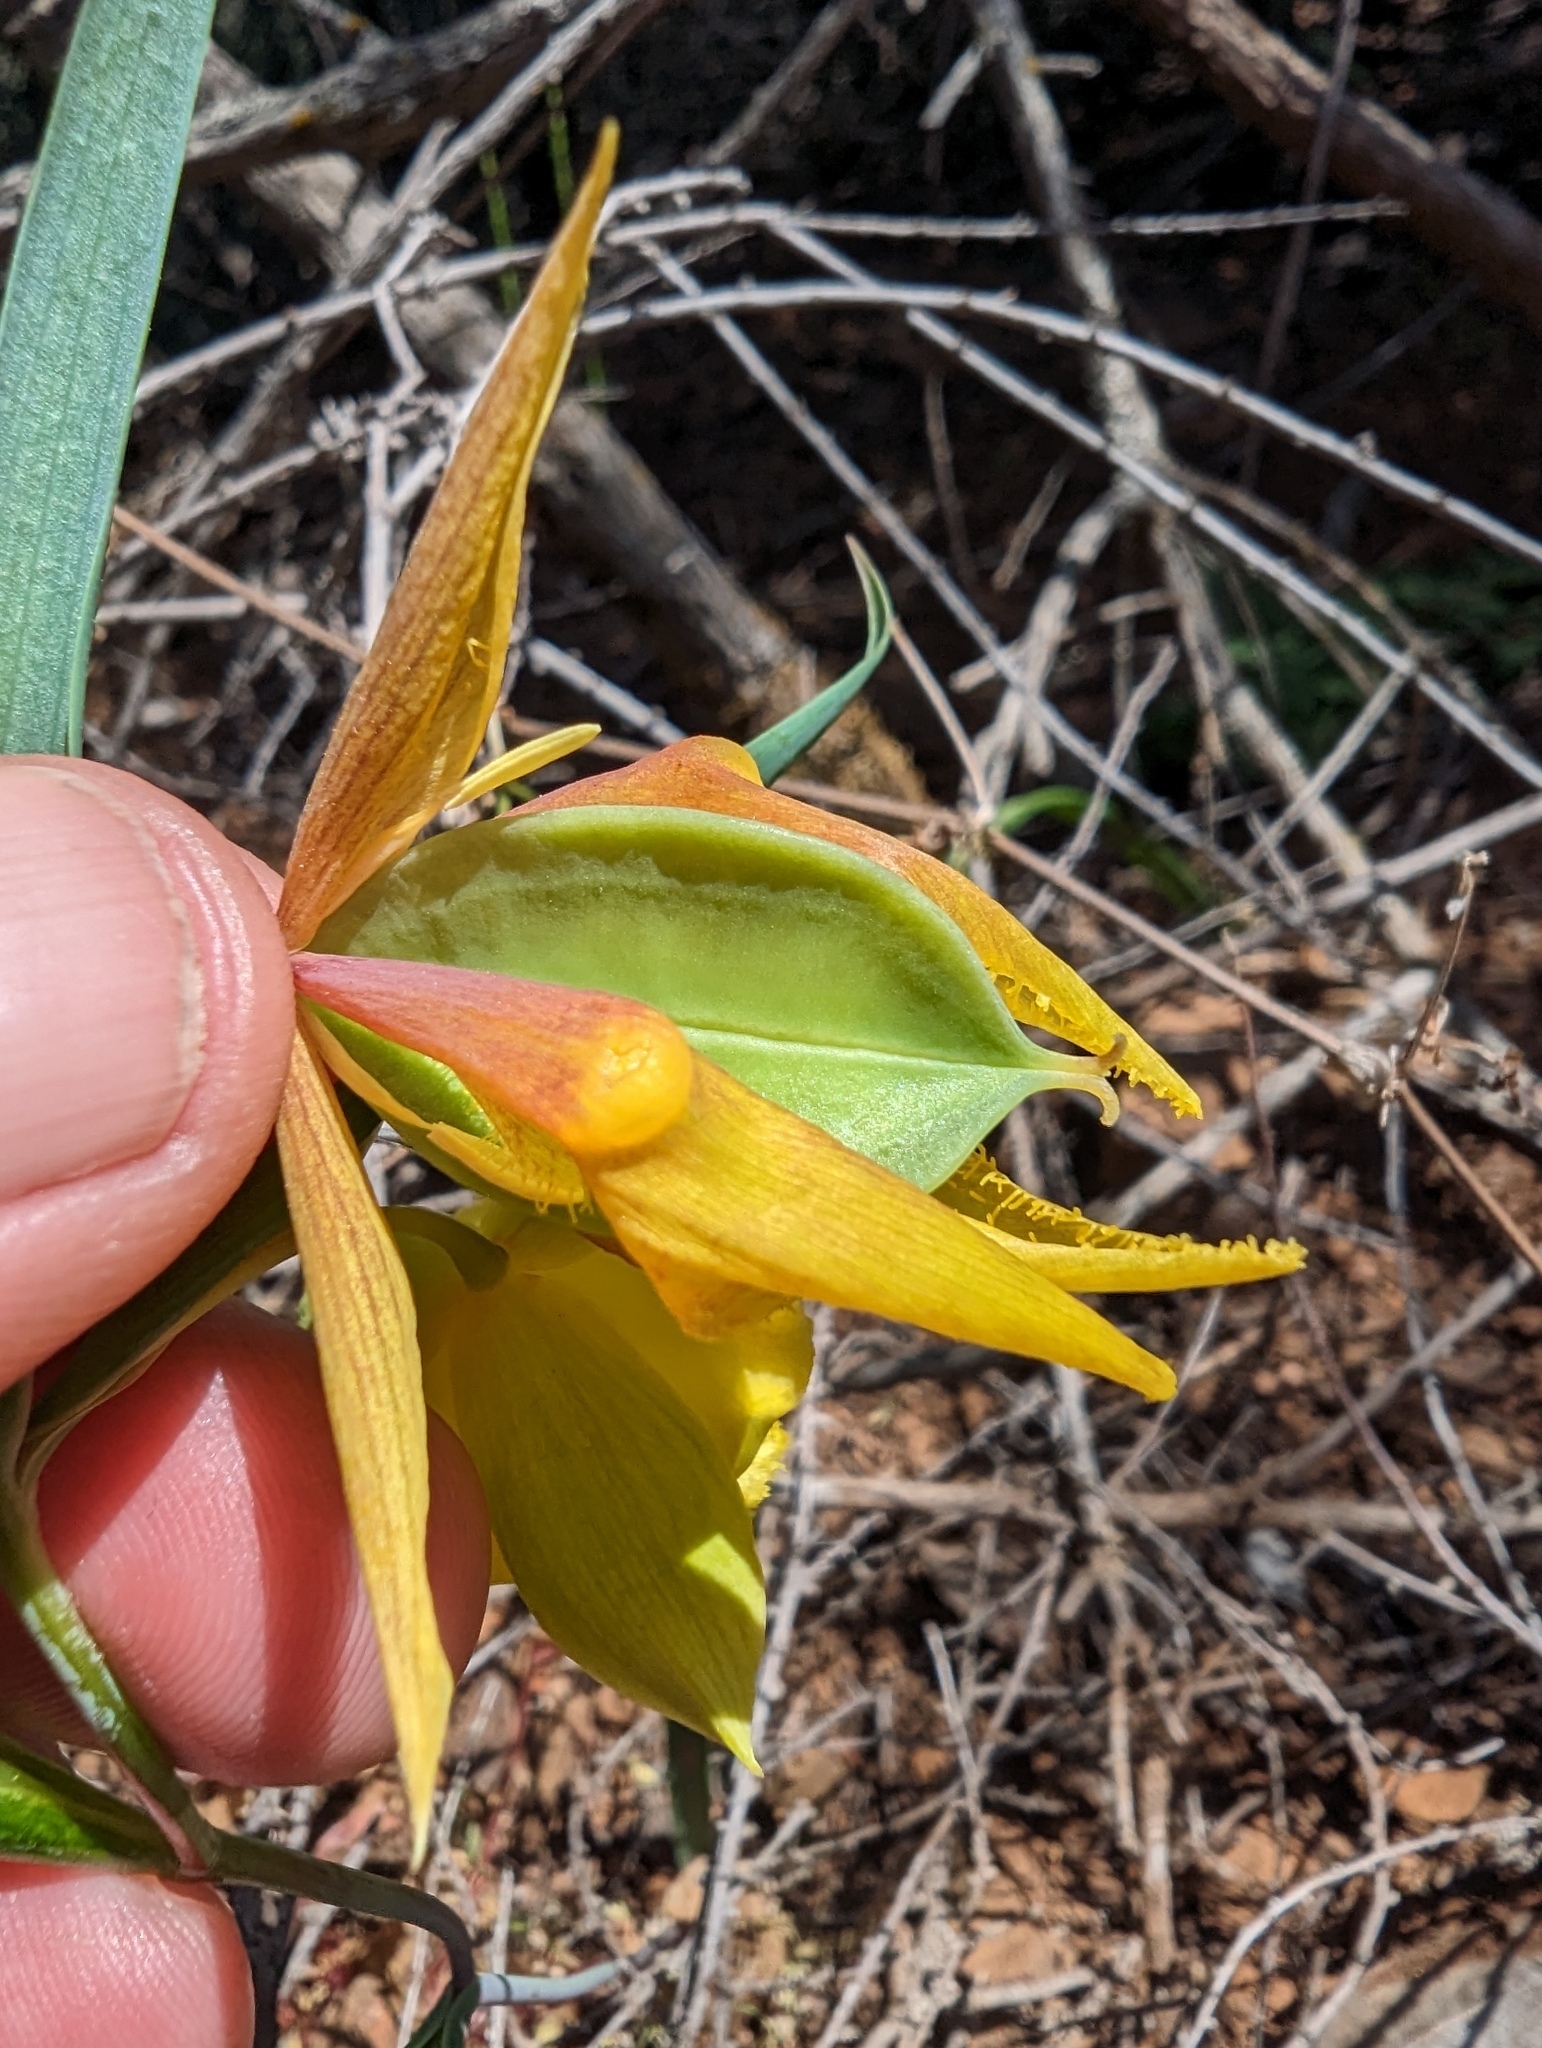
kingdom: Plantae
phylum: Tracheophyta
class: Liliopsida
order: Liliales
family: Liliaceae
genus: Calochortus
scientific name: Calochortus pulchellus
